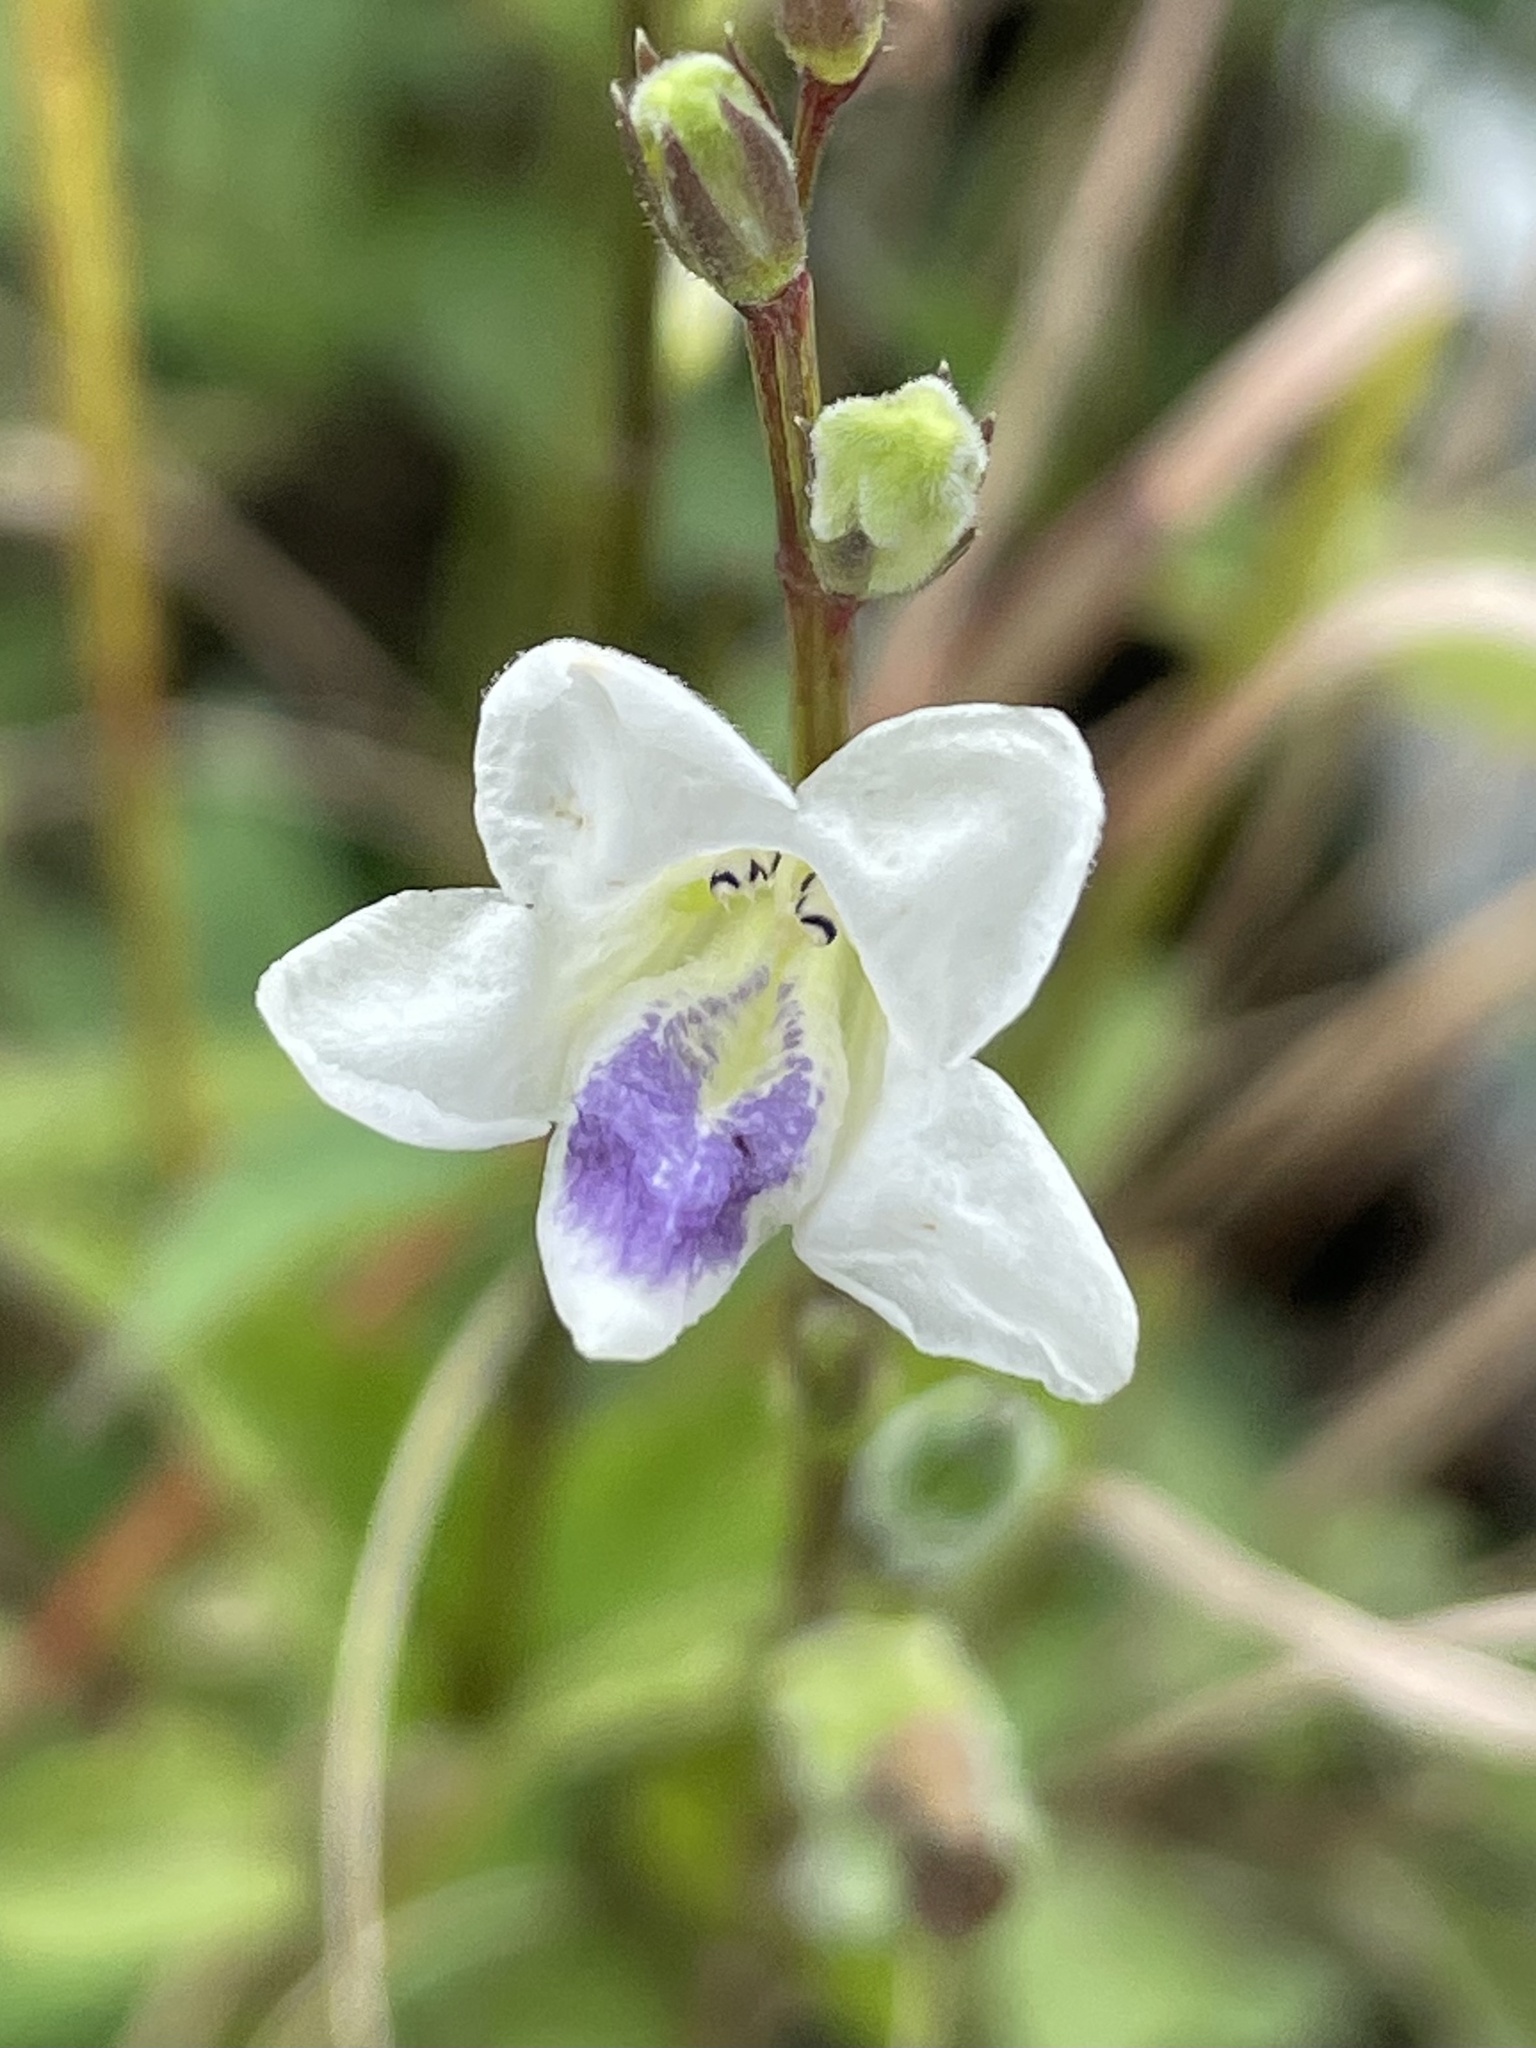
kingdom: Plantae
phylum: Tracheophyta
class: Magnoliopsida
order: Lamiales
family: Acanthaceae
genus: Asystasia
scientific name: Asystasia intrusa
